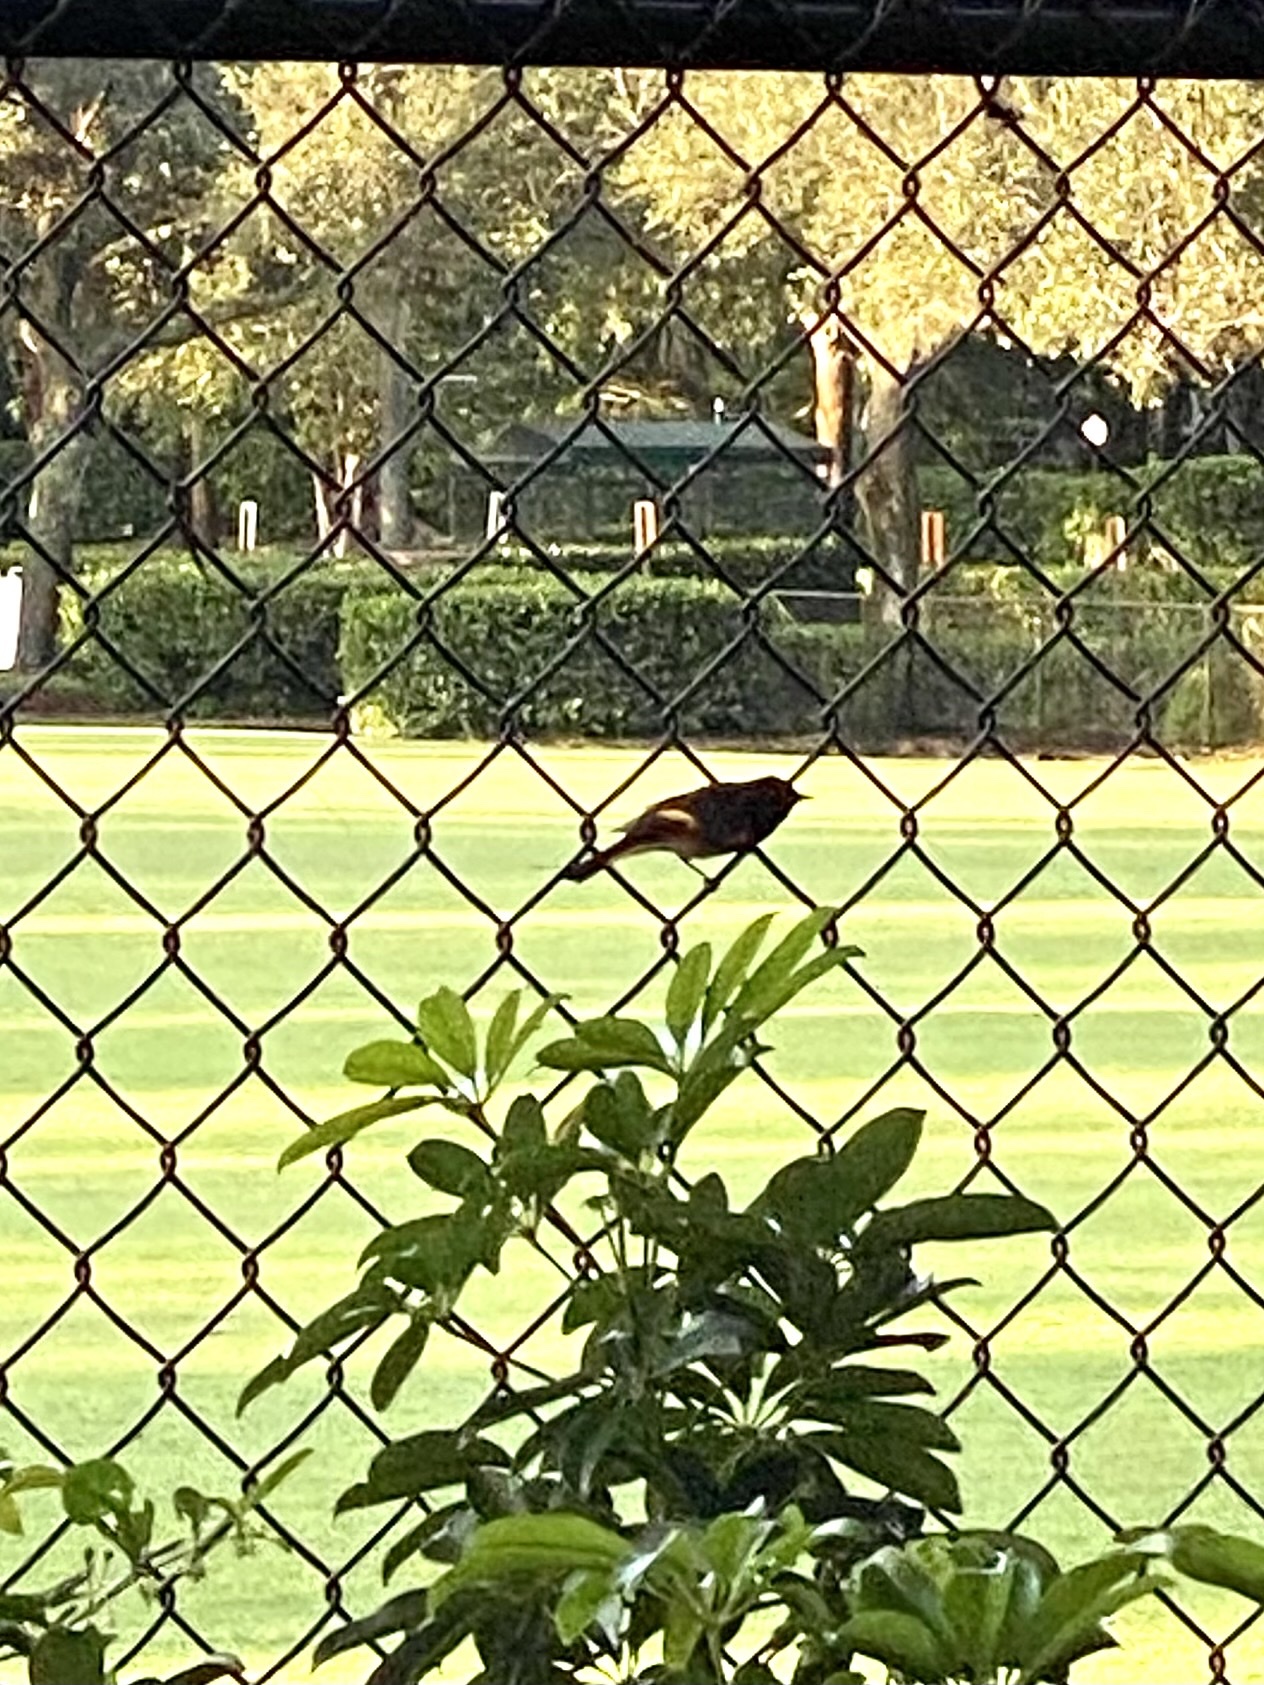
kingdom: Animalia
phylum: Chordata
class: Aves
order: Passeriformes
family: Parulidae
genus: Setophaga
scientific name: Setophaga ruticilla
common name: American redstart
